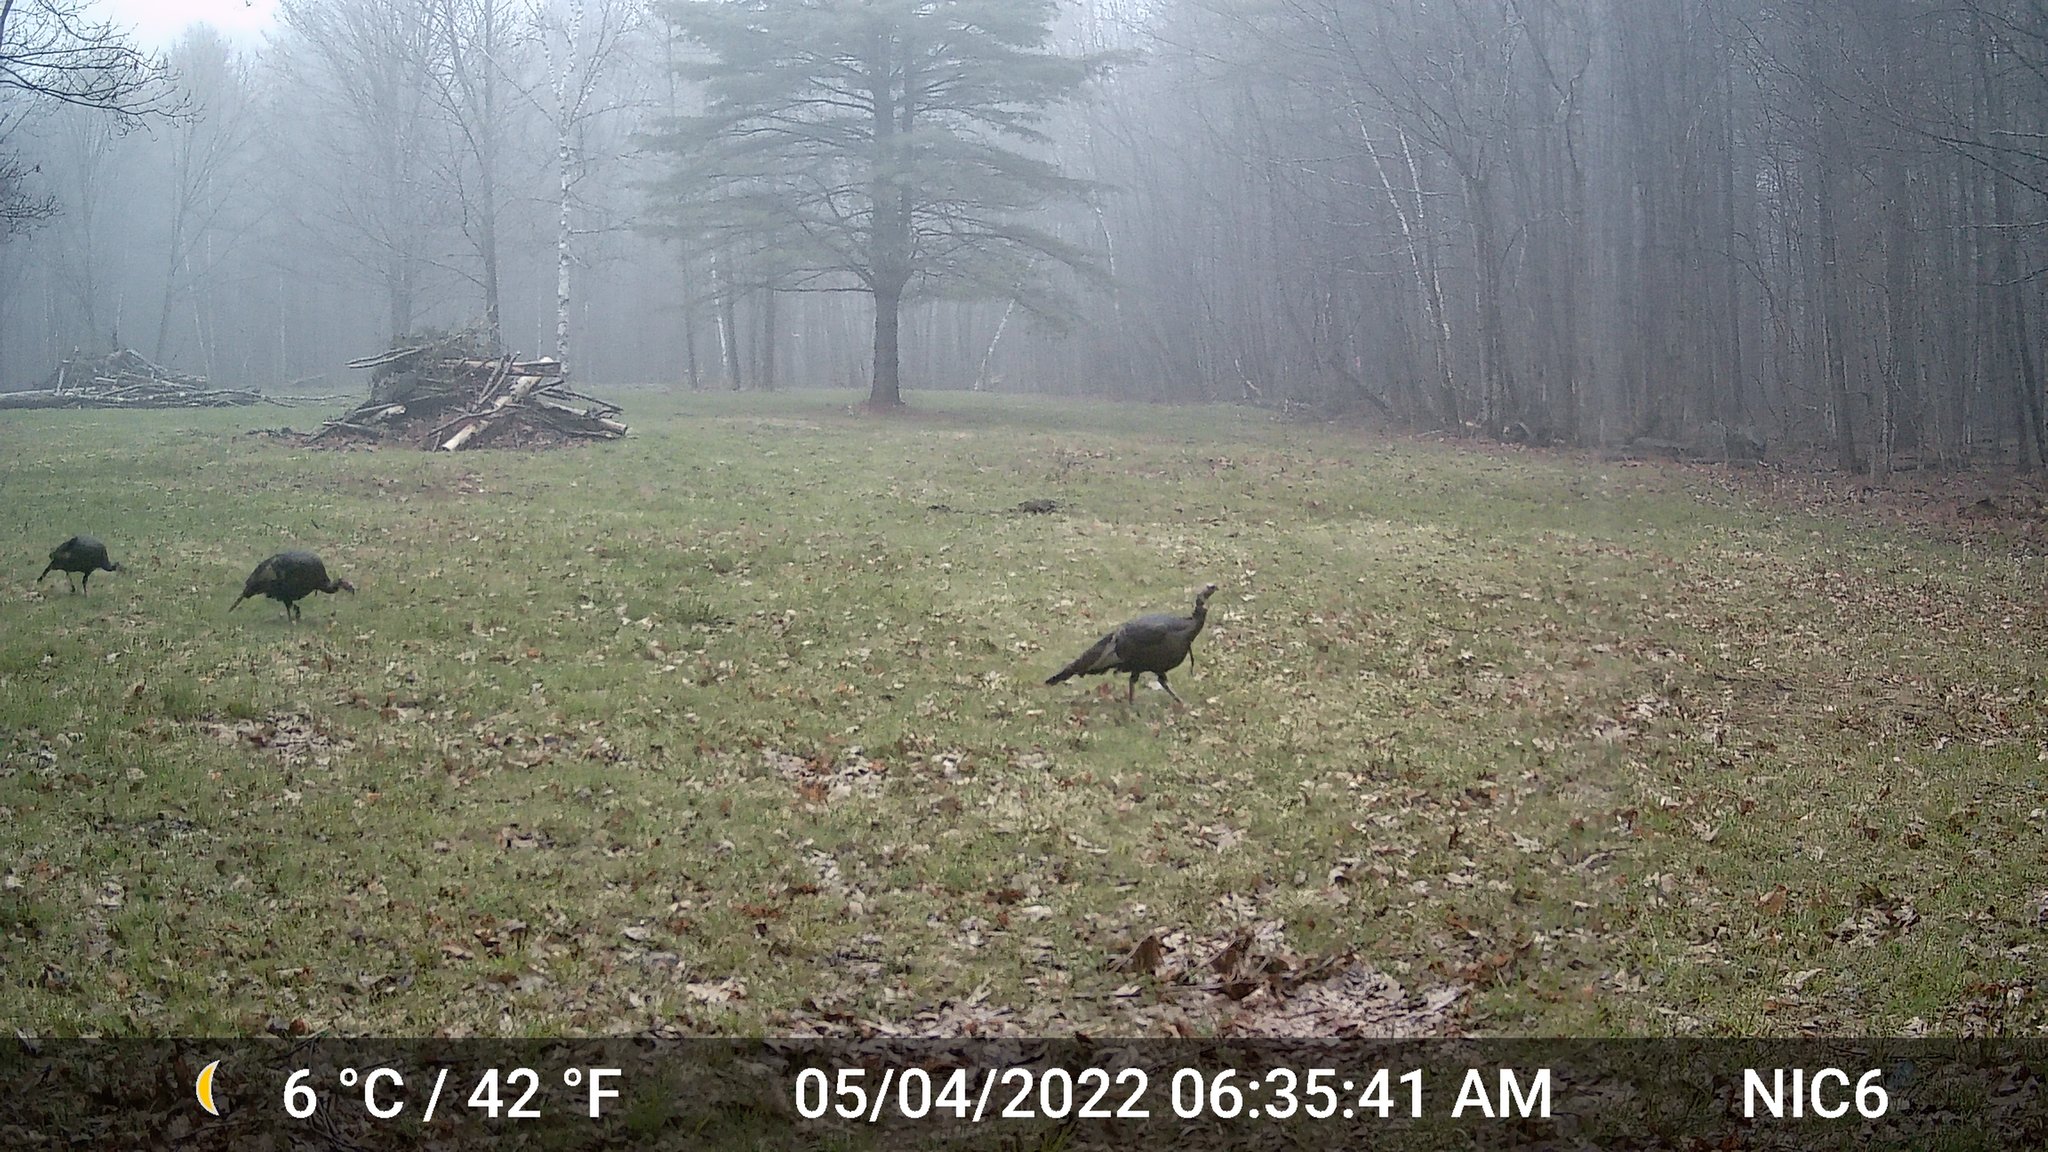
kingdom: Animalia
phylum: Chordata
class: Aves
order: Galliformes
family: Phasianidae
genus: Meleagris
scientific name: Meleagris gallopavo
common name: Wild turkey
